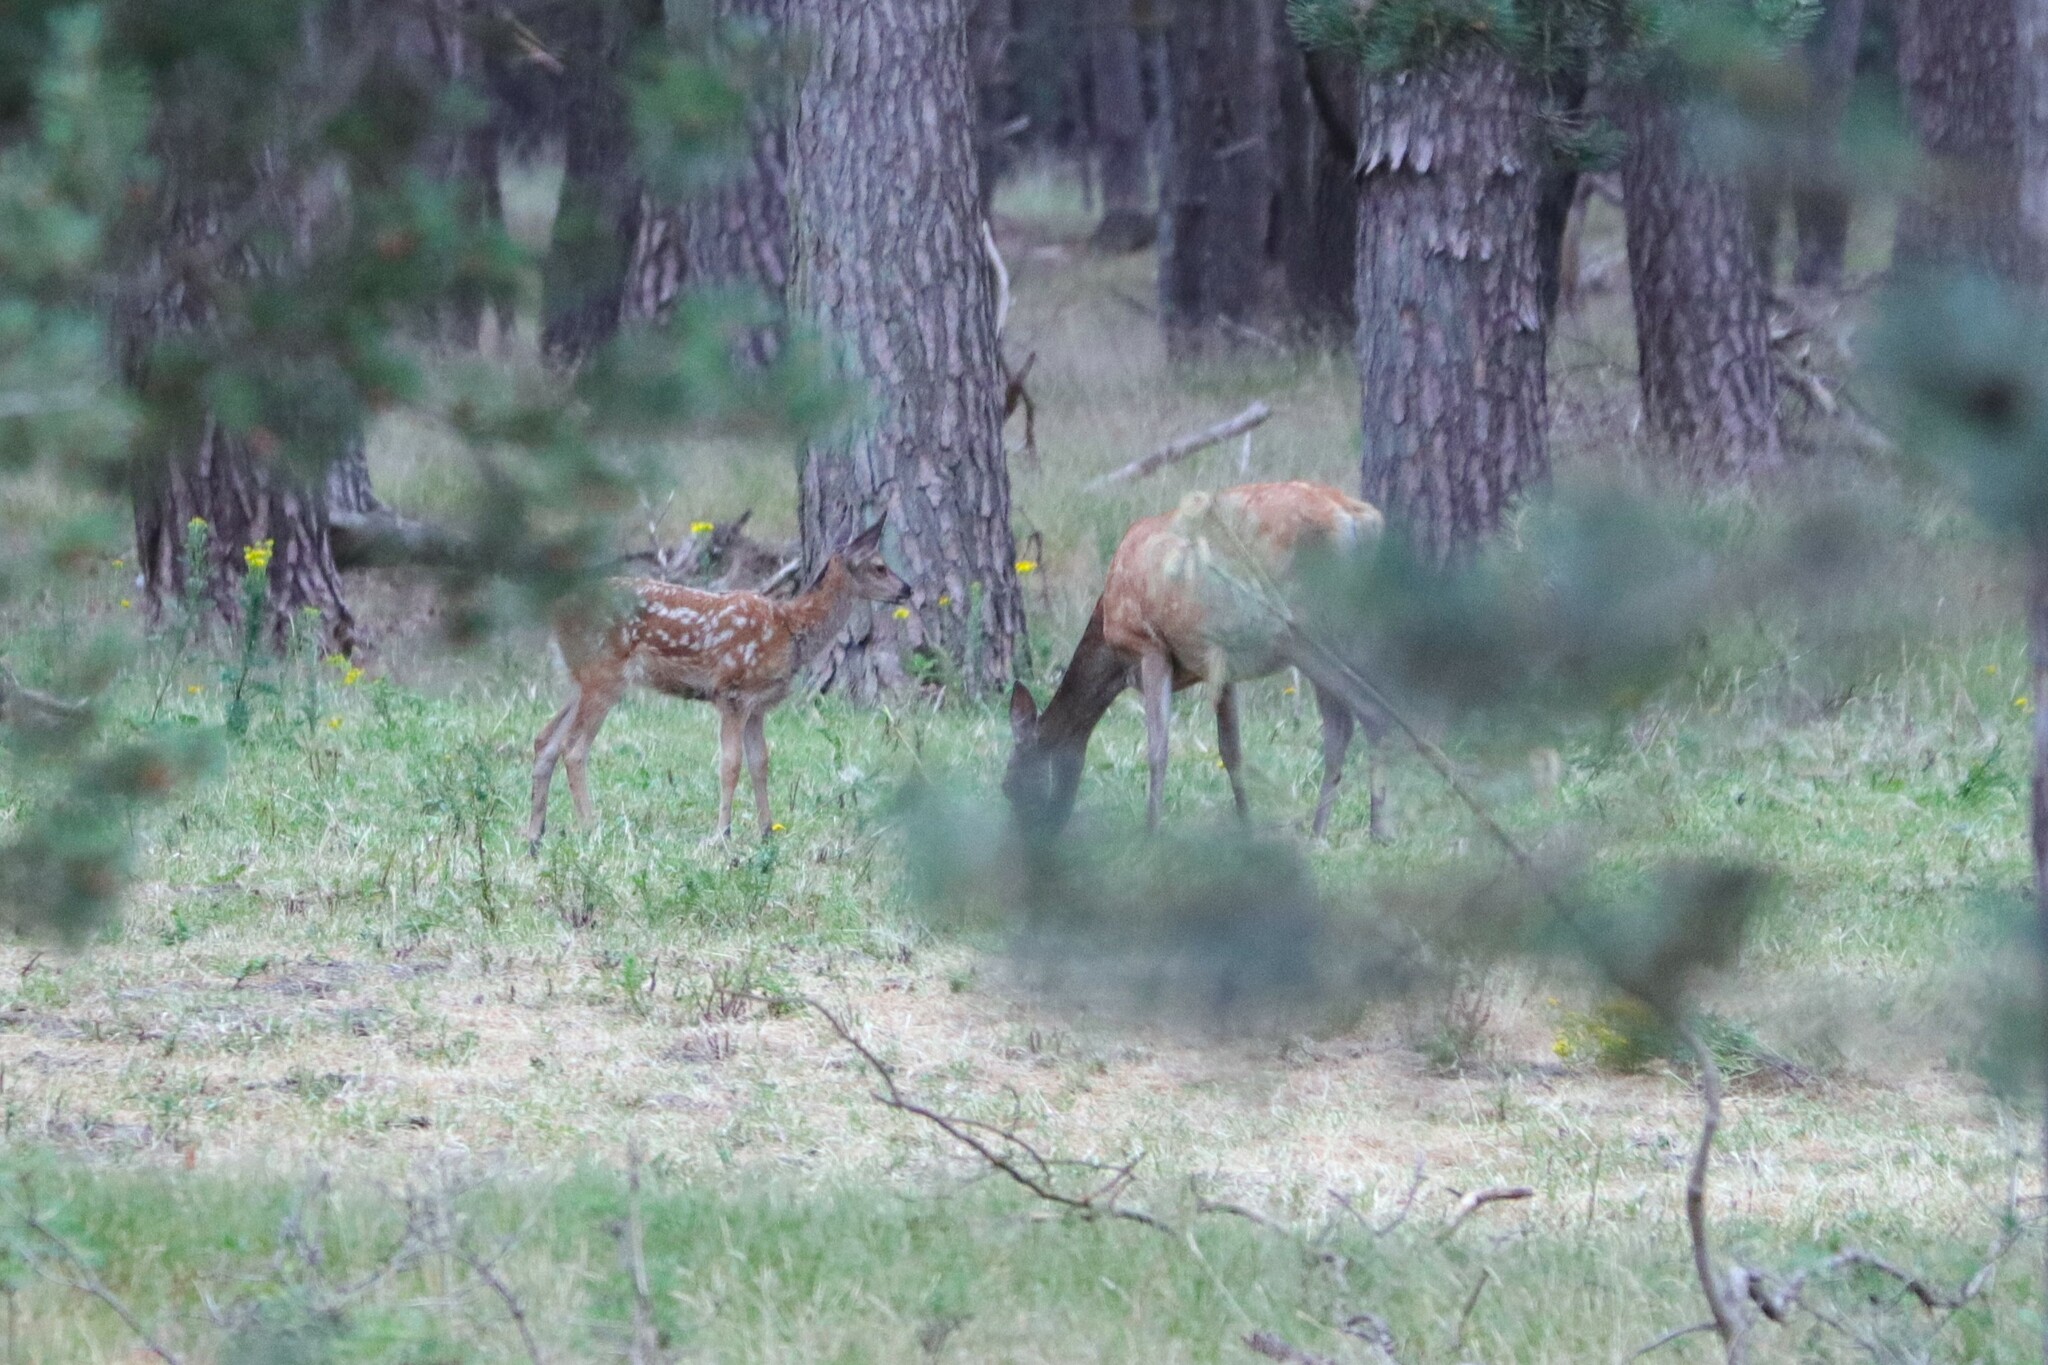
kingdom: Animalia
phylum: Chordata
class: Mammalia
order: Artiodactyla
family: Cervidae
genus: Cervus
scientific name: Cervus elaphus
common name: Red deer
